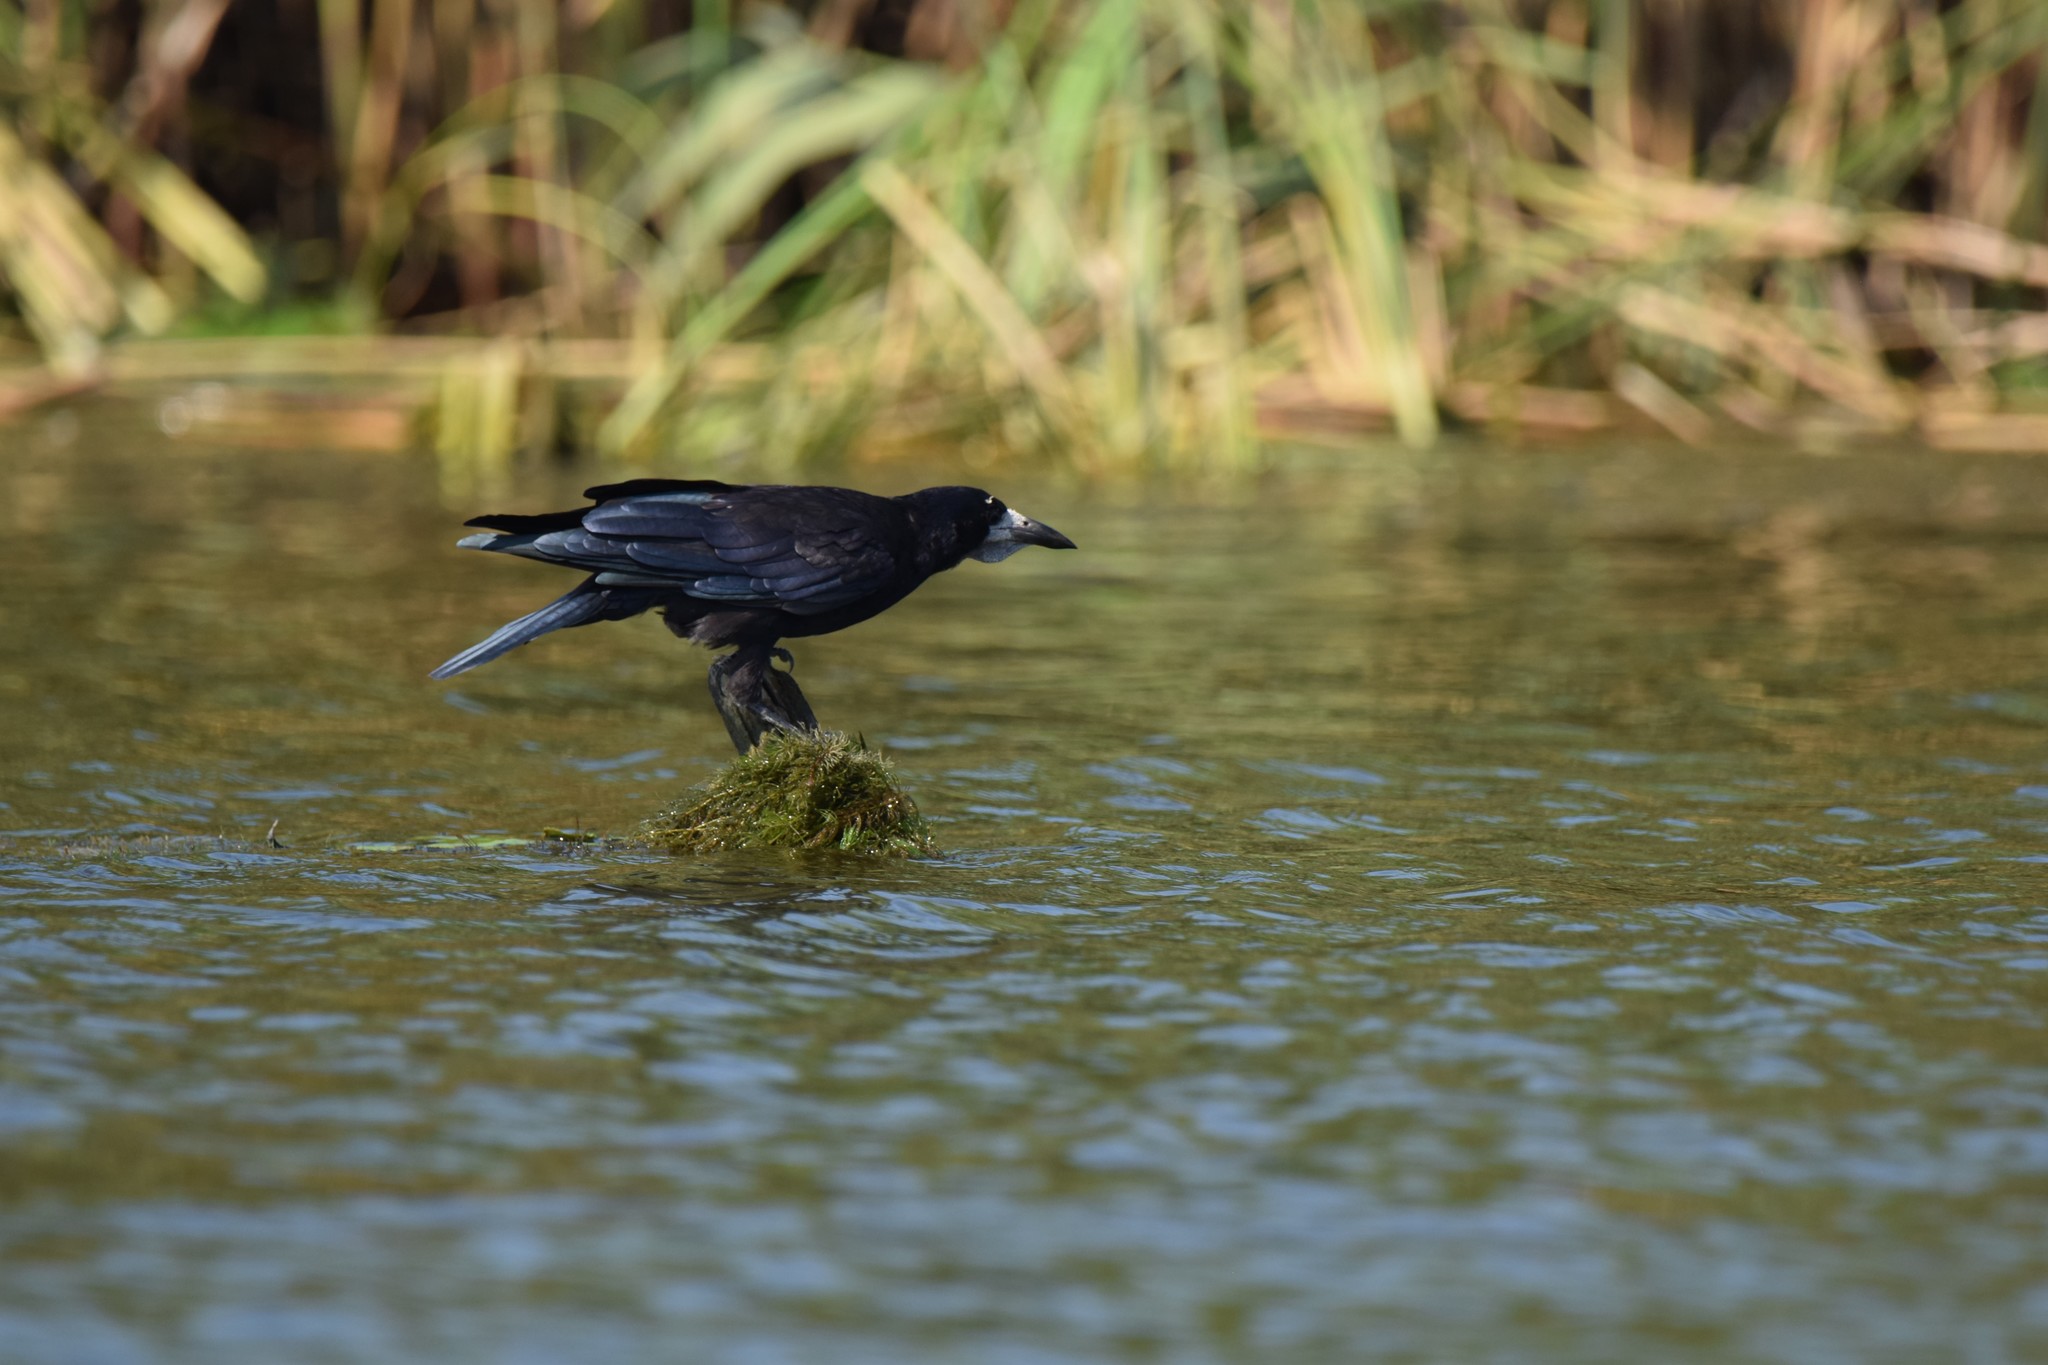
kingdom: Animalia
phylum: Chordata
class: Aves
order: Passeriformes
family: Corvidae
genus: Corvus
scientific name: Corvus frugilegus
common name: Rook
